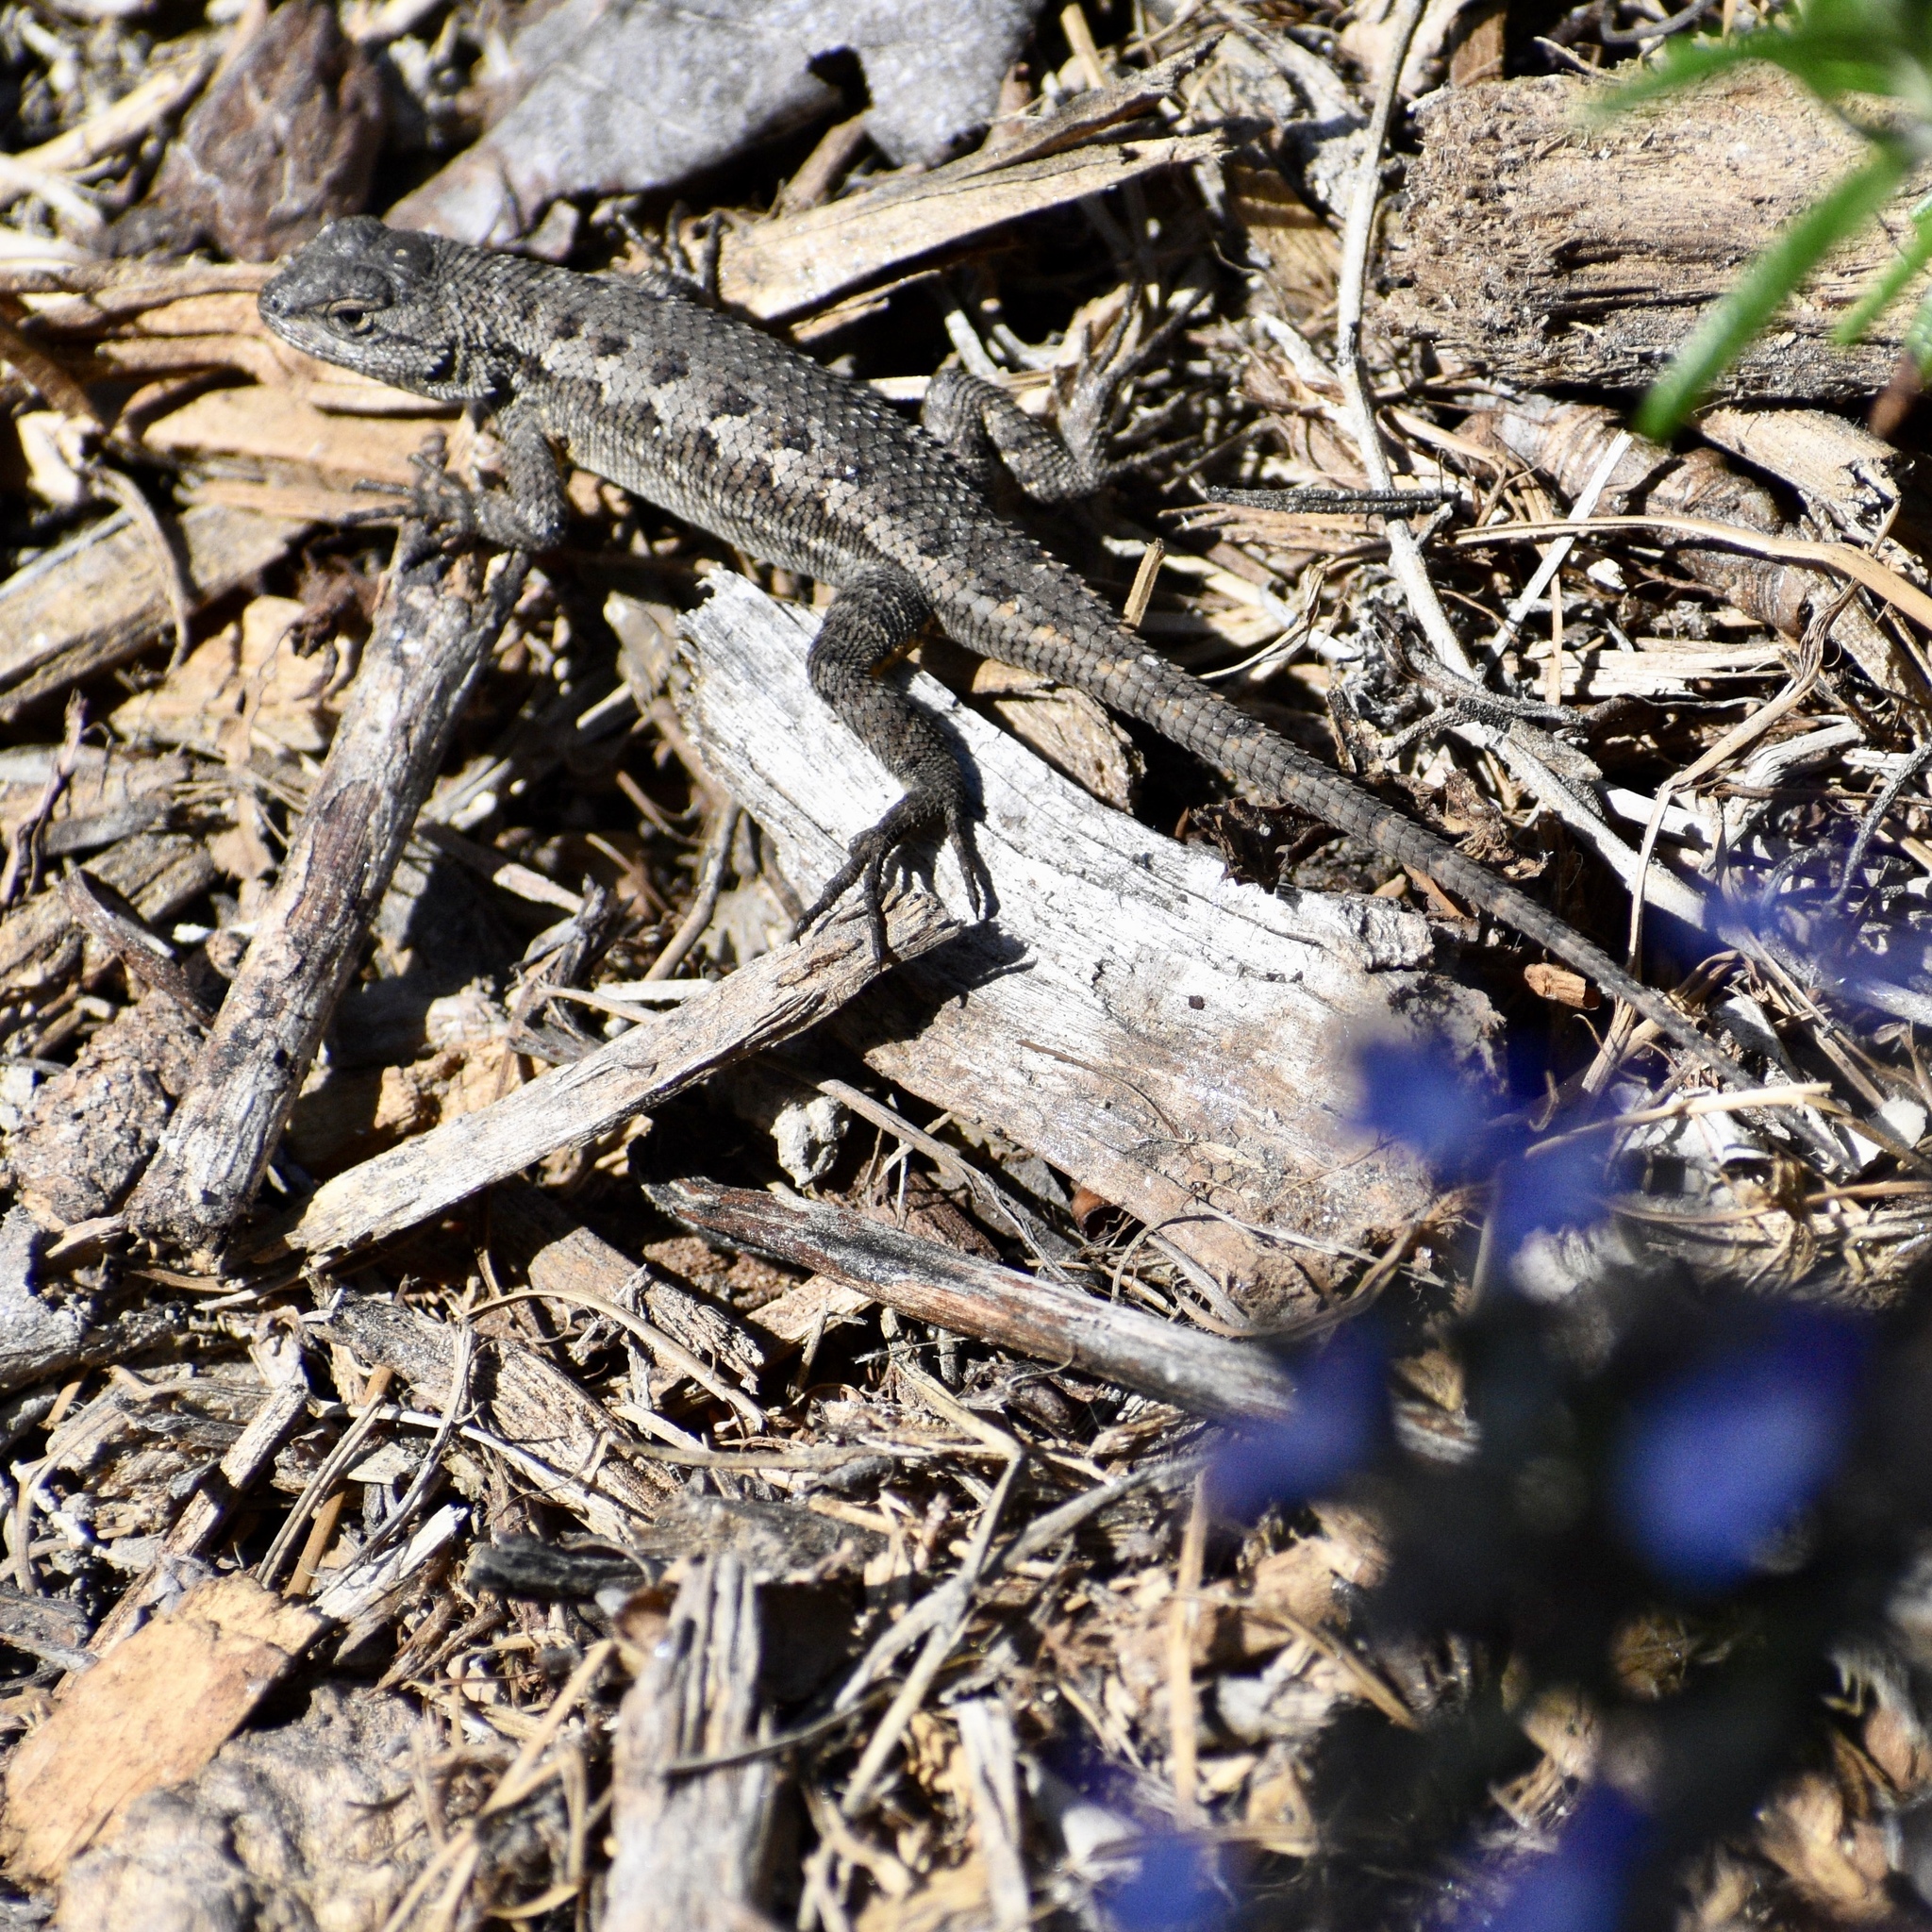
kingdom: Animalia
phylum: Chordata
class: Squamata
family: Phrynosomatidae
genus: Sceloporus
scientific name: Sceloporus occidentalis
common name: Western fence lizard
